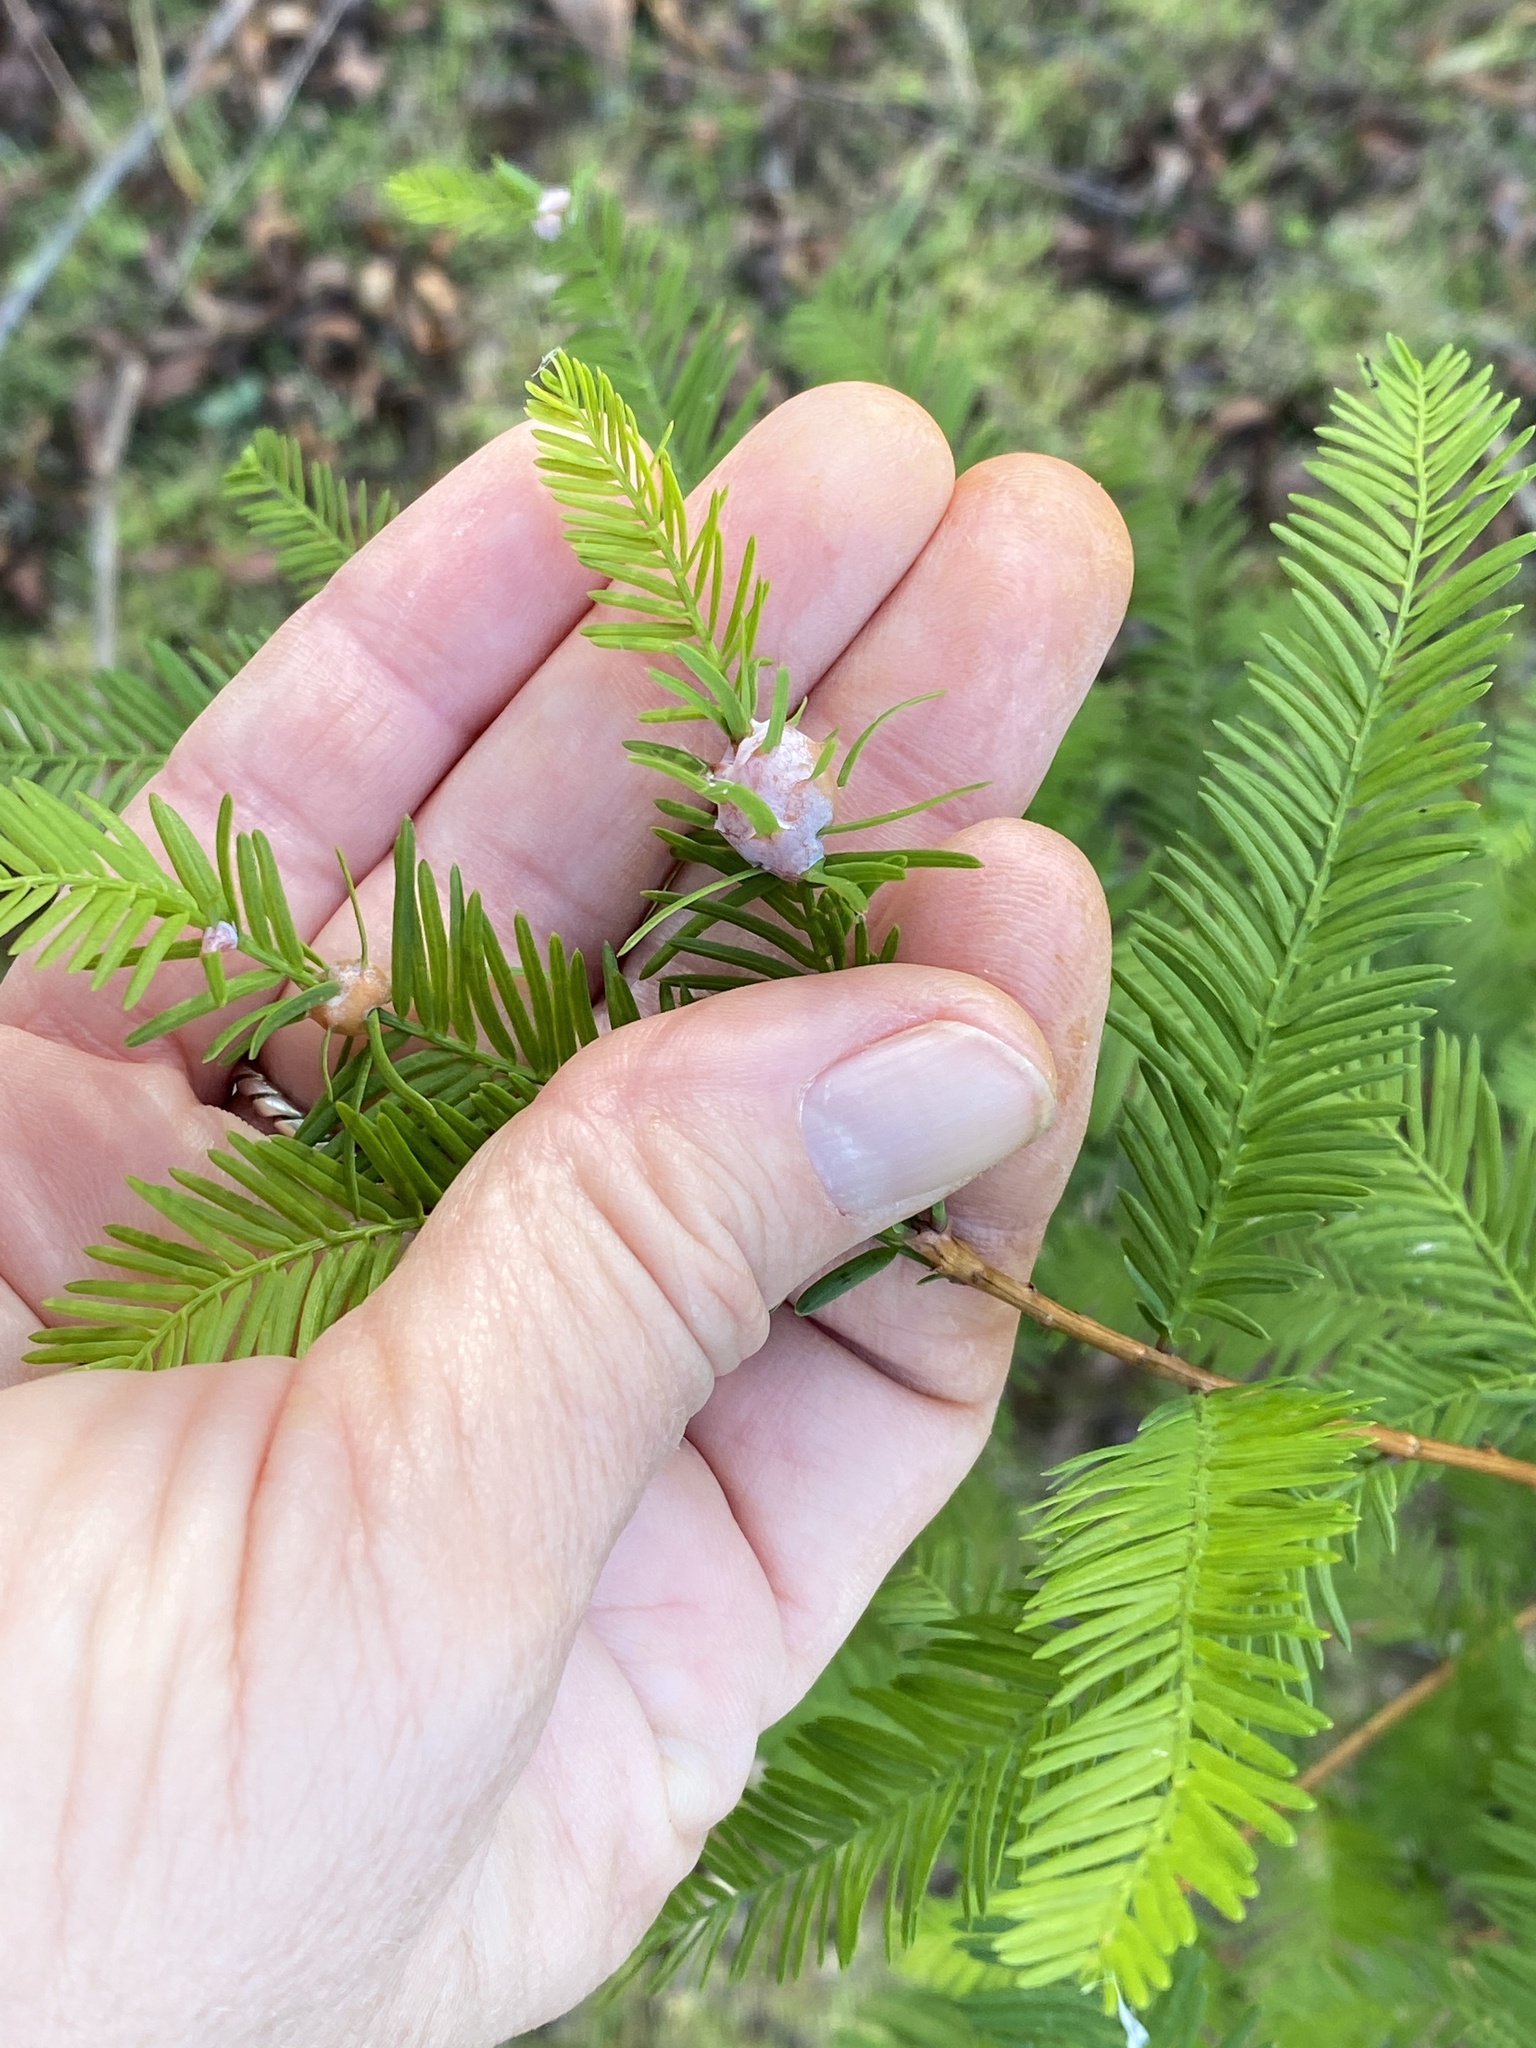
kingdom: Animalia
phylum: Arthropoda
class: Insecta
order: Diptera
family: Cecidomyiidae
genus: Taxodiomyia
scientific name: Taxodiomyia cupressiananassa
